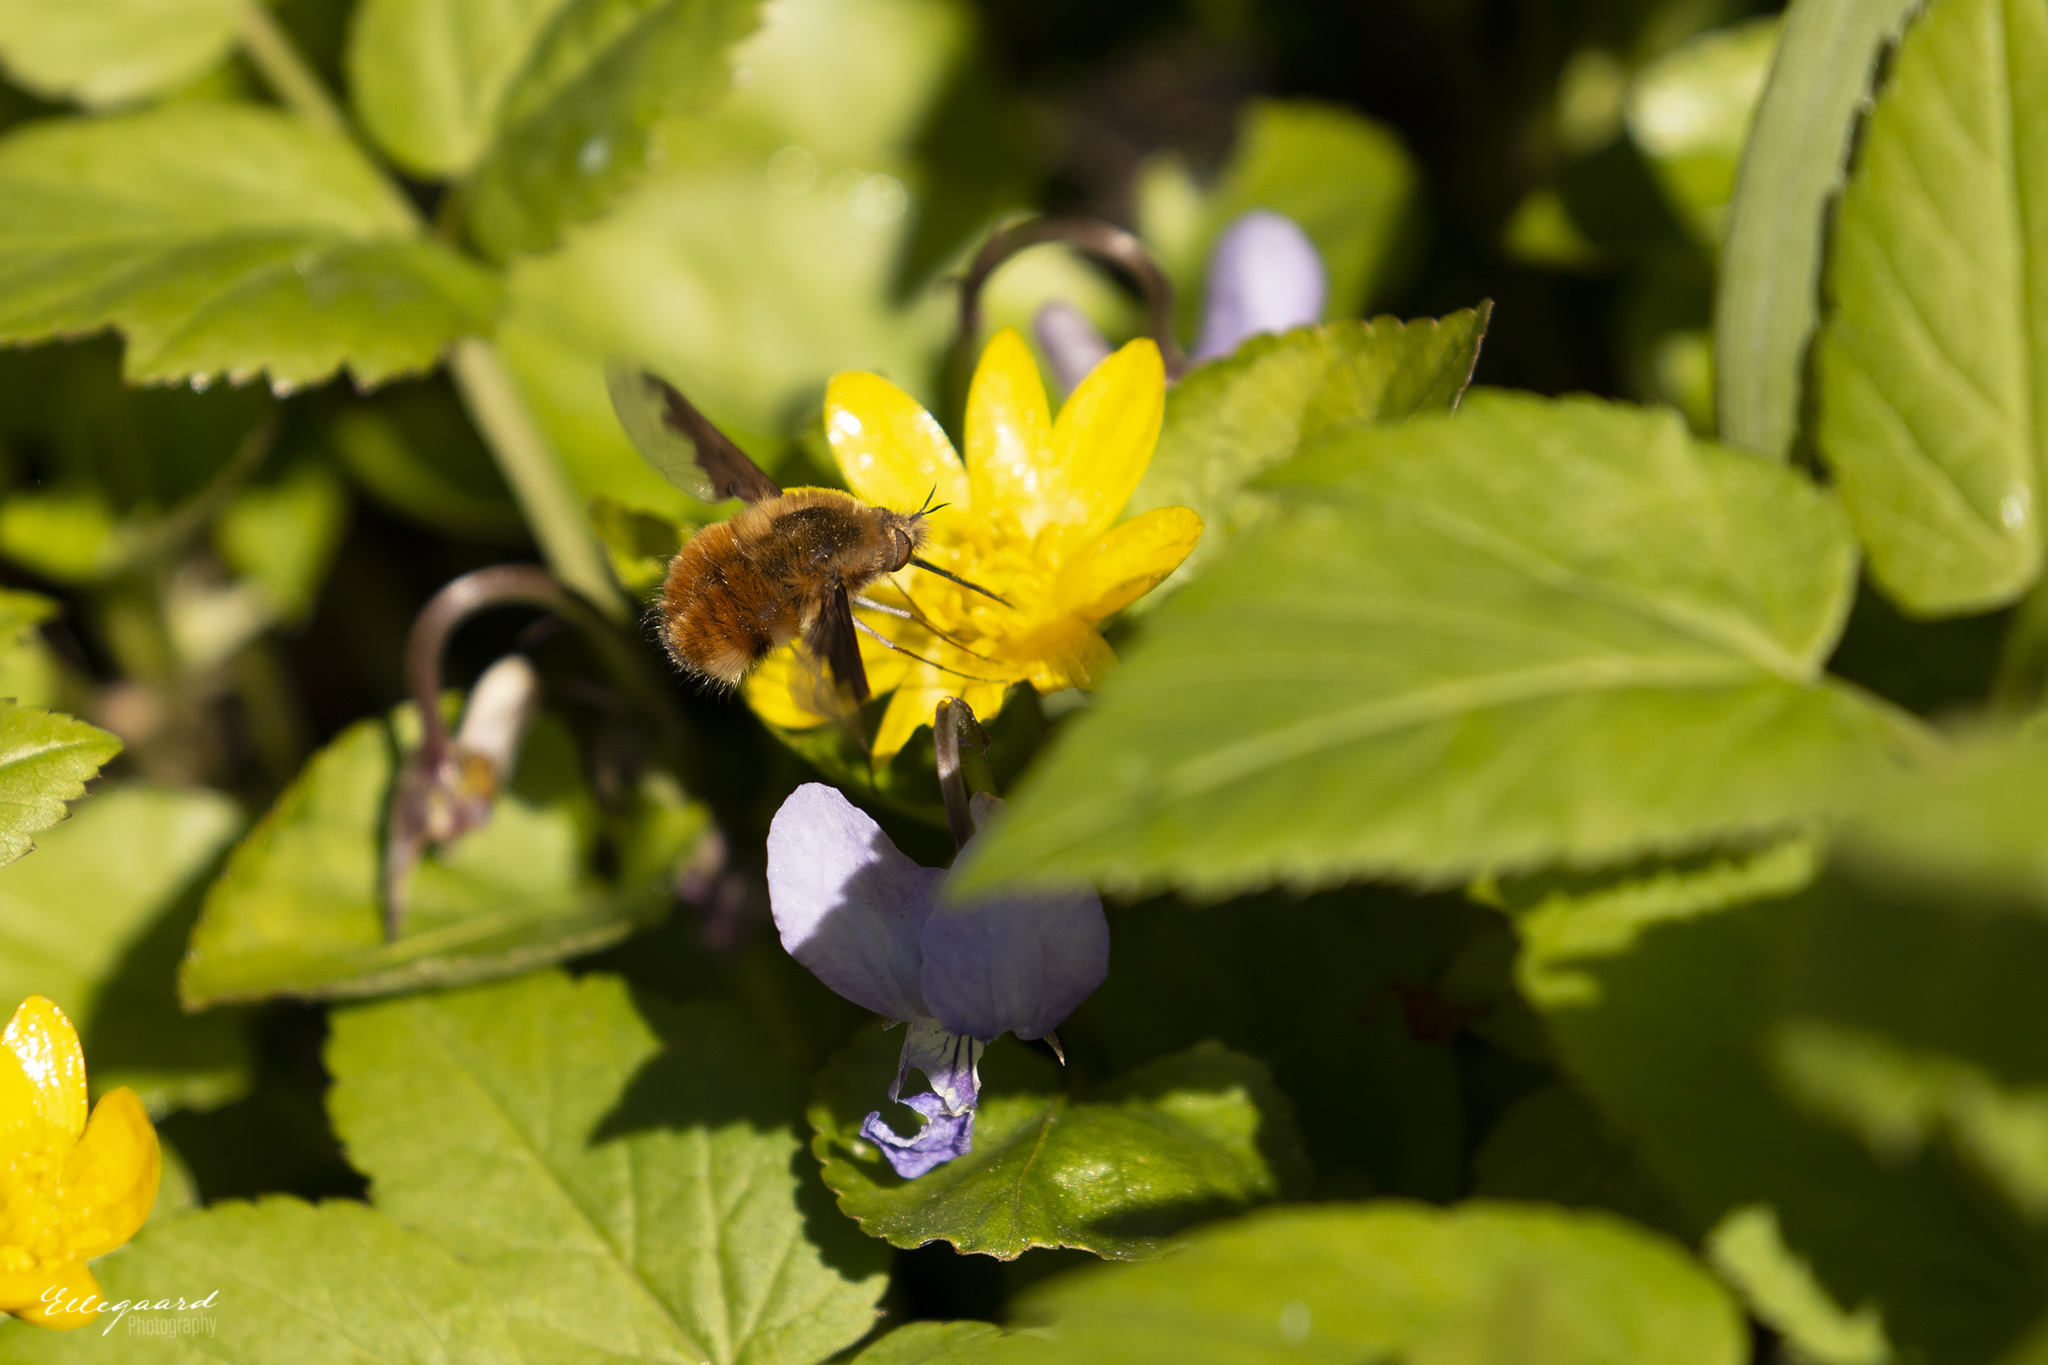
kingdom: Animalia
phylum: Arthropoda
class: Insecta
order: Diptera
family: Bombyliidae
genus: Bombylius
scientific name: Bombylius major
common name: Bee fly
